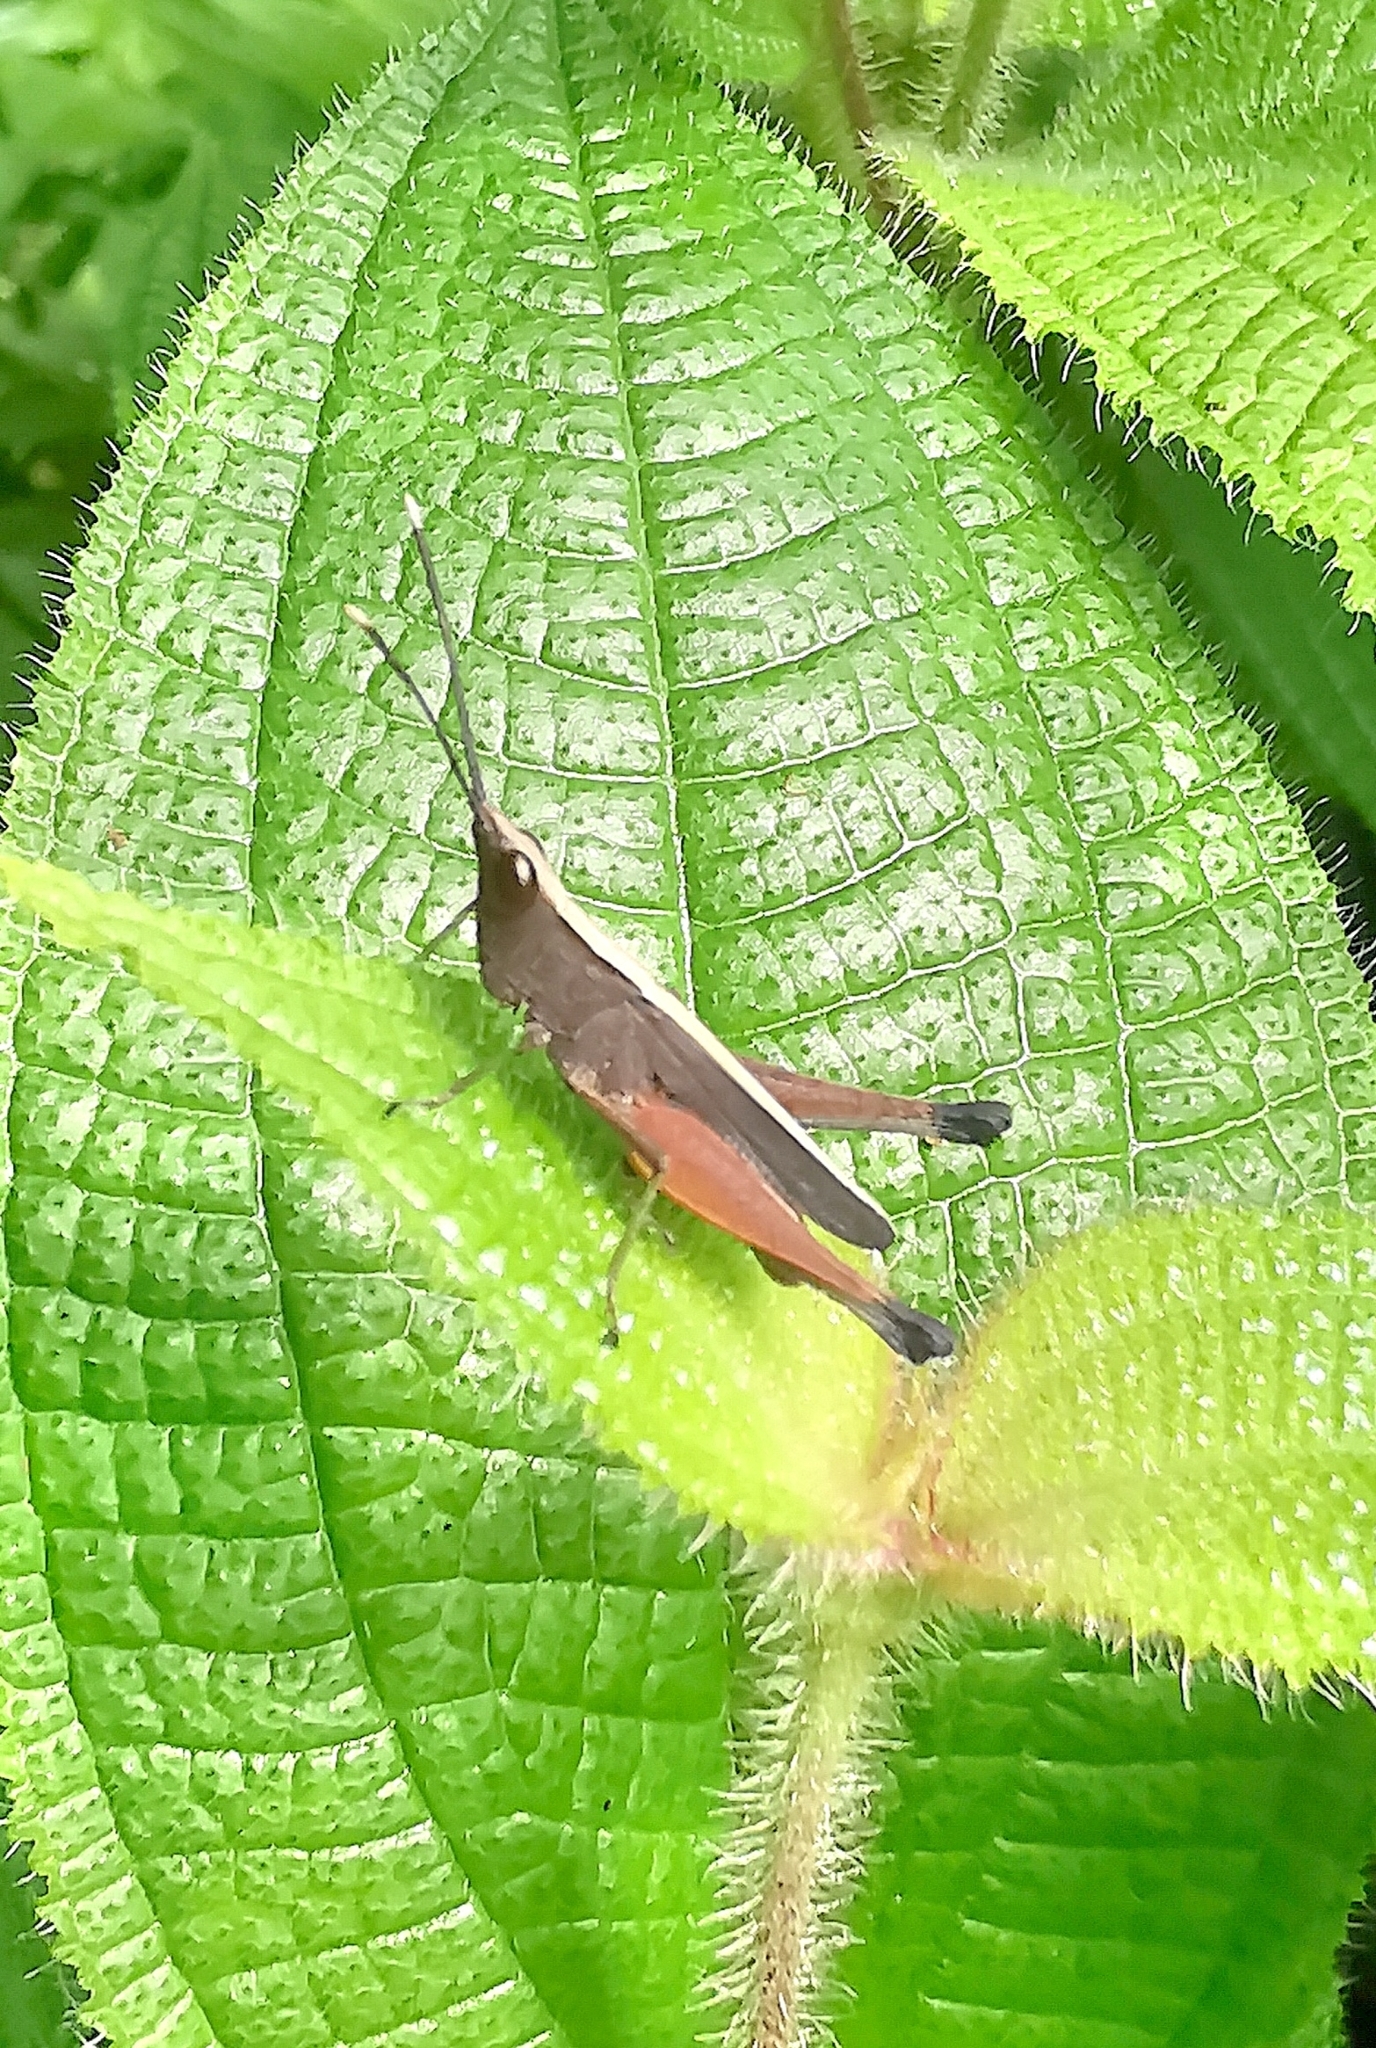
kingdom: Animalia
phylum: Arthropoda
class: Insecta
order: Orthoptera
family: Acrididae
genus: Phlaeoba
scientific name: Phlaeoba antennata
